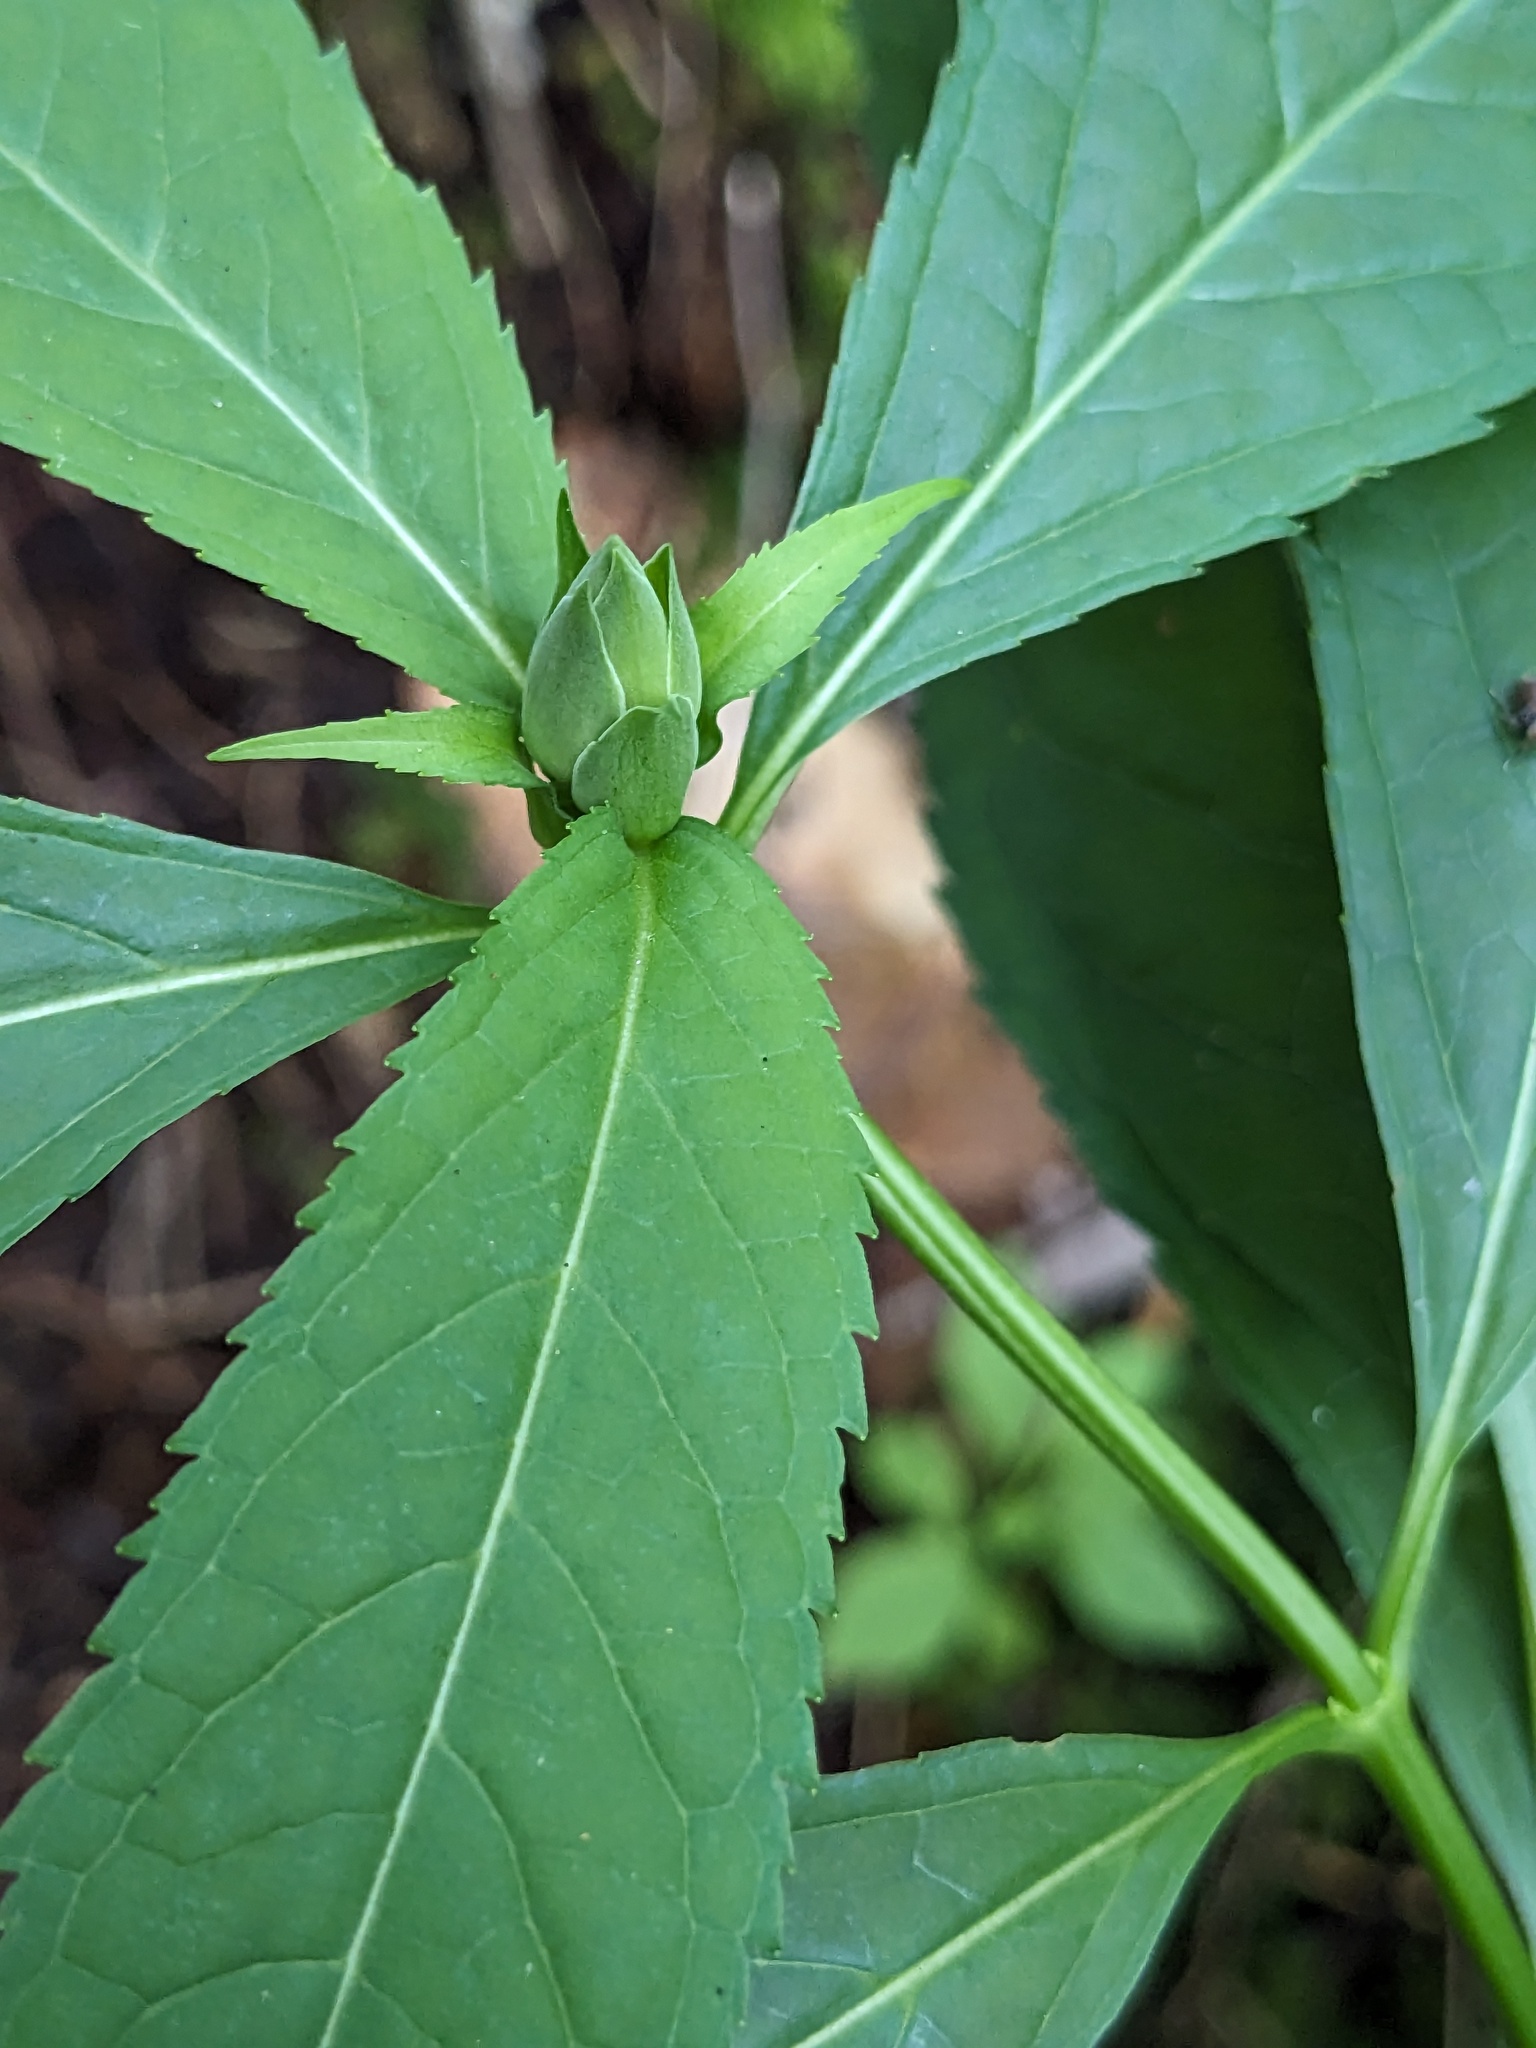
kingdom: Plantae
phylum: Tracheophyta
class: Magnoliopsida
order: Lamiales
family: Plantaginaceae
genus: Chelone
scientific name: Chelone glabra
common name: Snakehead
